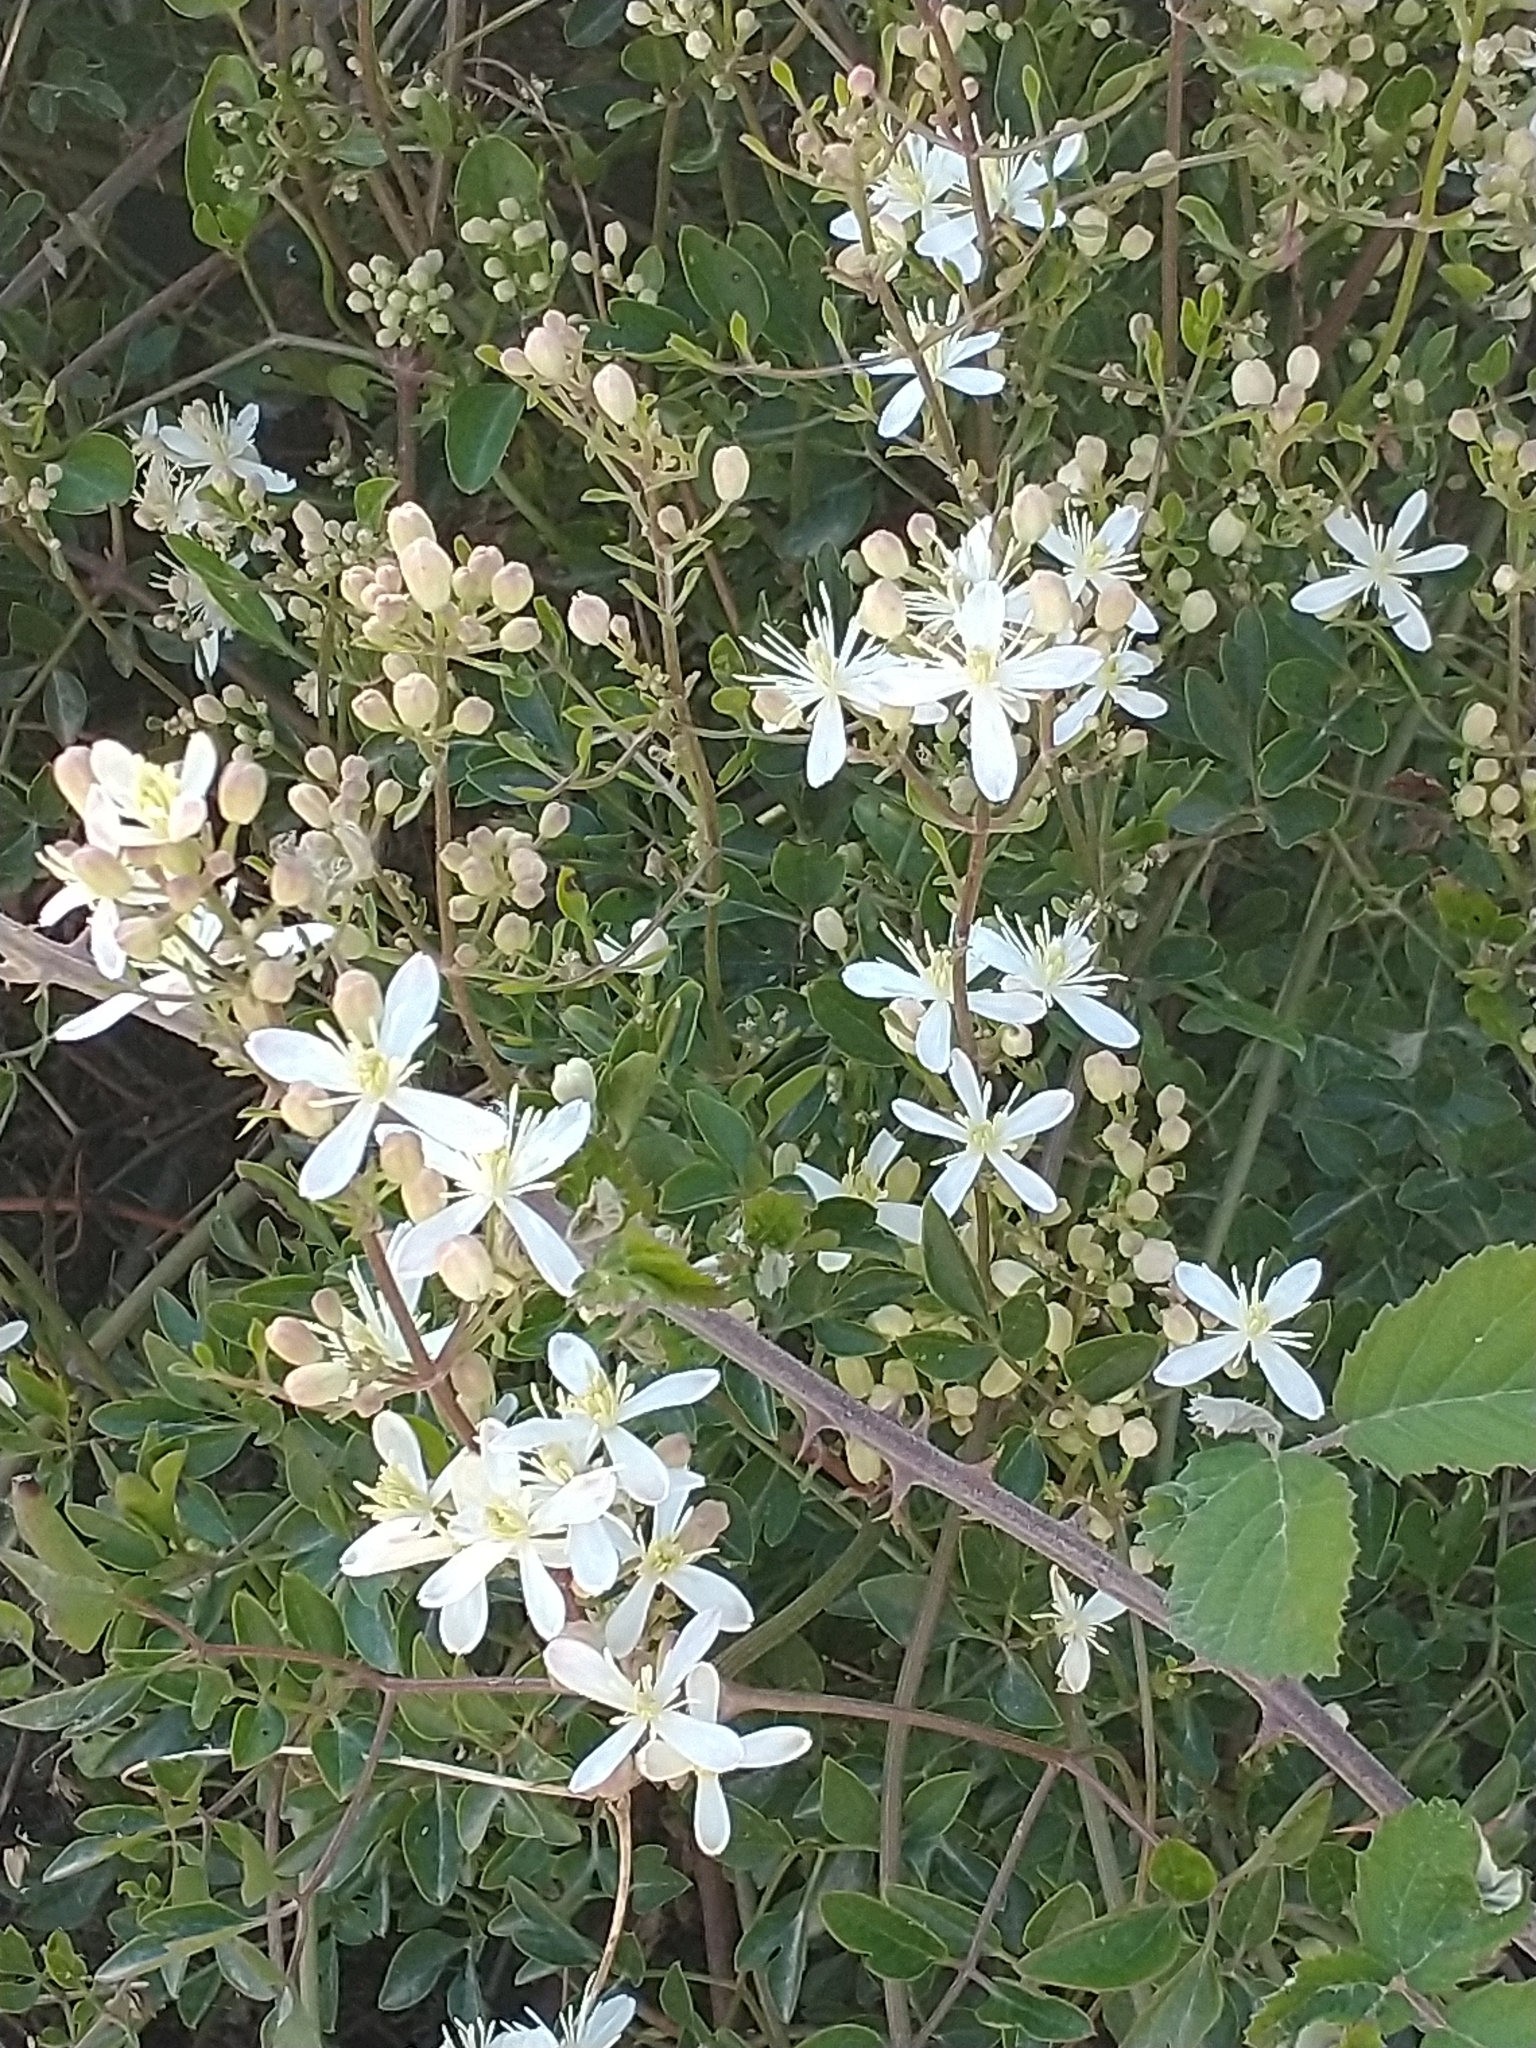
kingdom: Plantae
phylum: Tracheophyta
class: Magnoliopsida
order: Ranunculales
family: Ranunculaceae
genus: Clematis
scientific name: Clematis flammula
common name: Virgin's-bower
